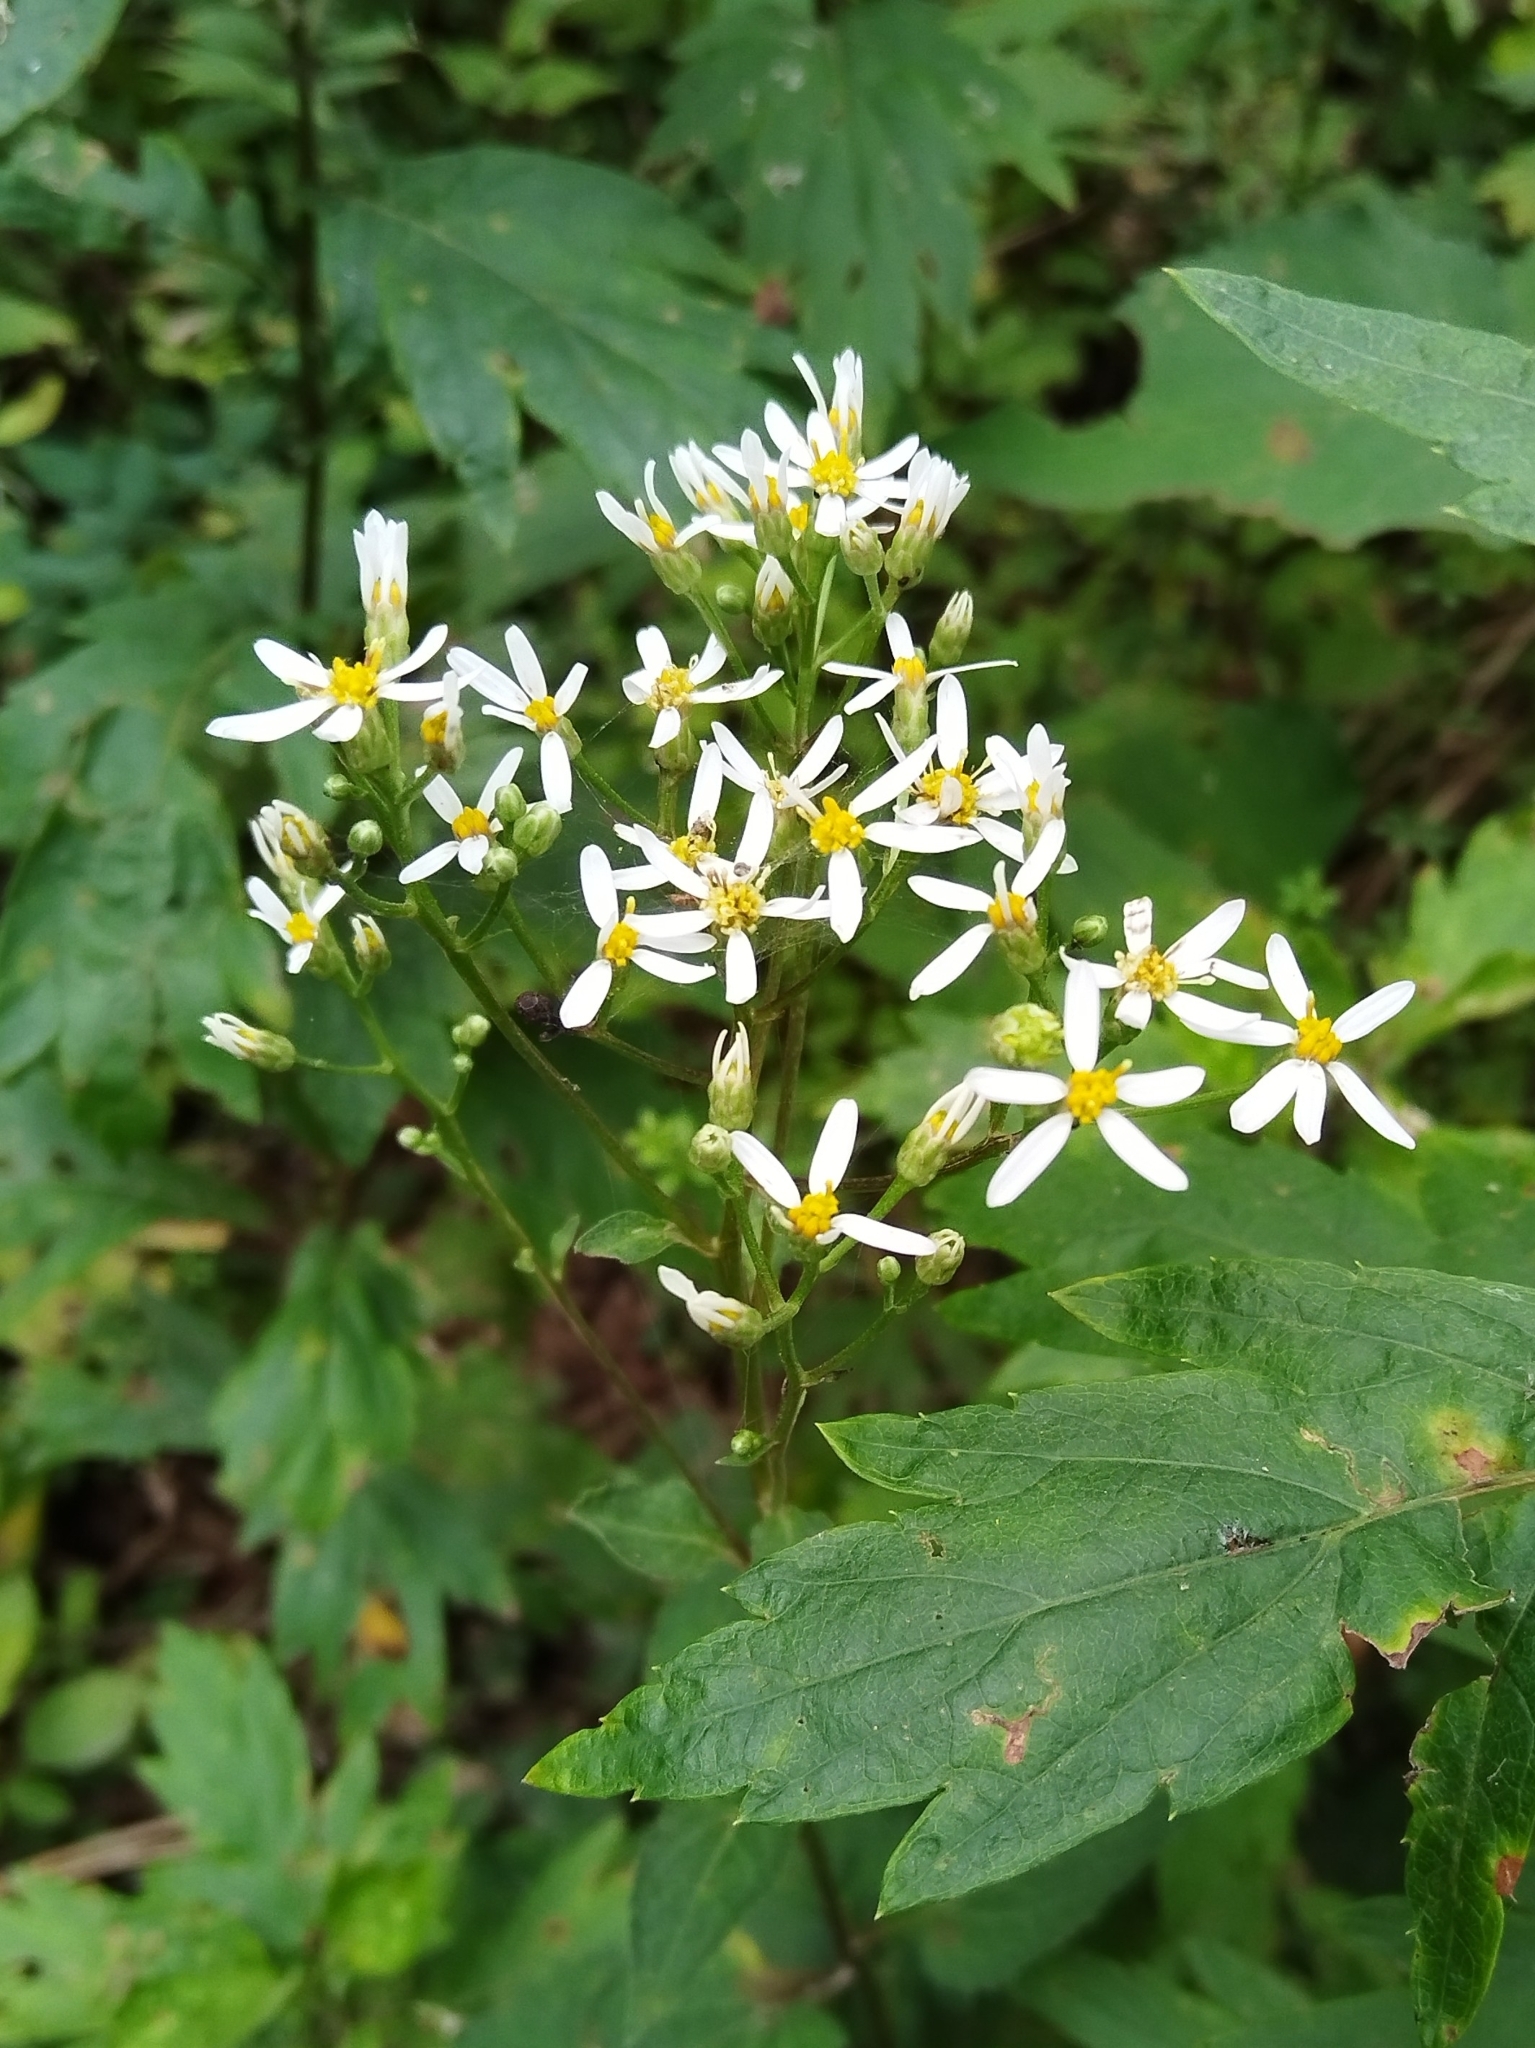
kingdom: Plantae
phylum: Tracheophyta
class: Magnoliopsida
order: Asterales
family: Asteraceae
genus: Aster
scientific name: Aster scaber
